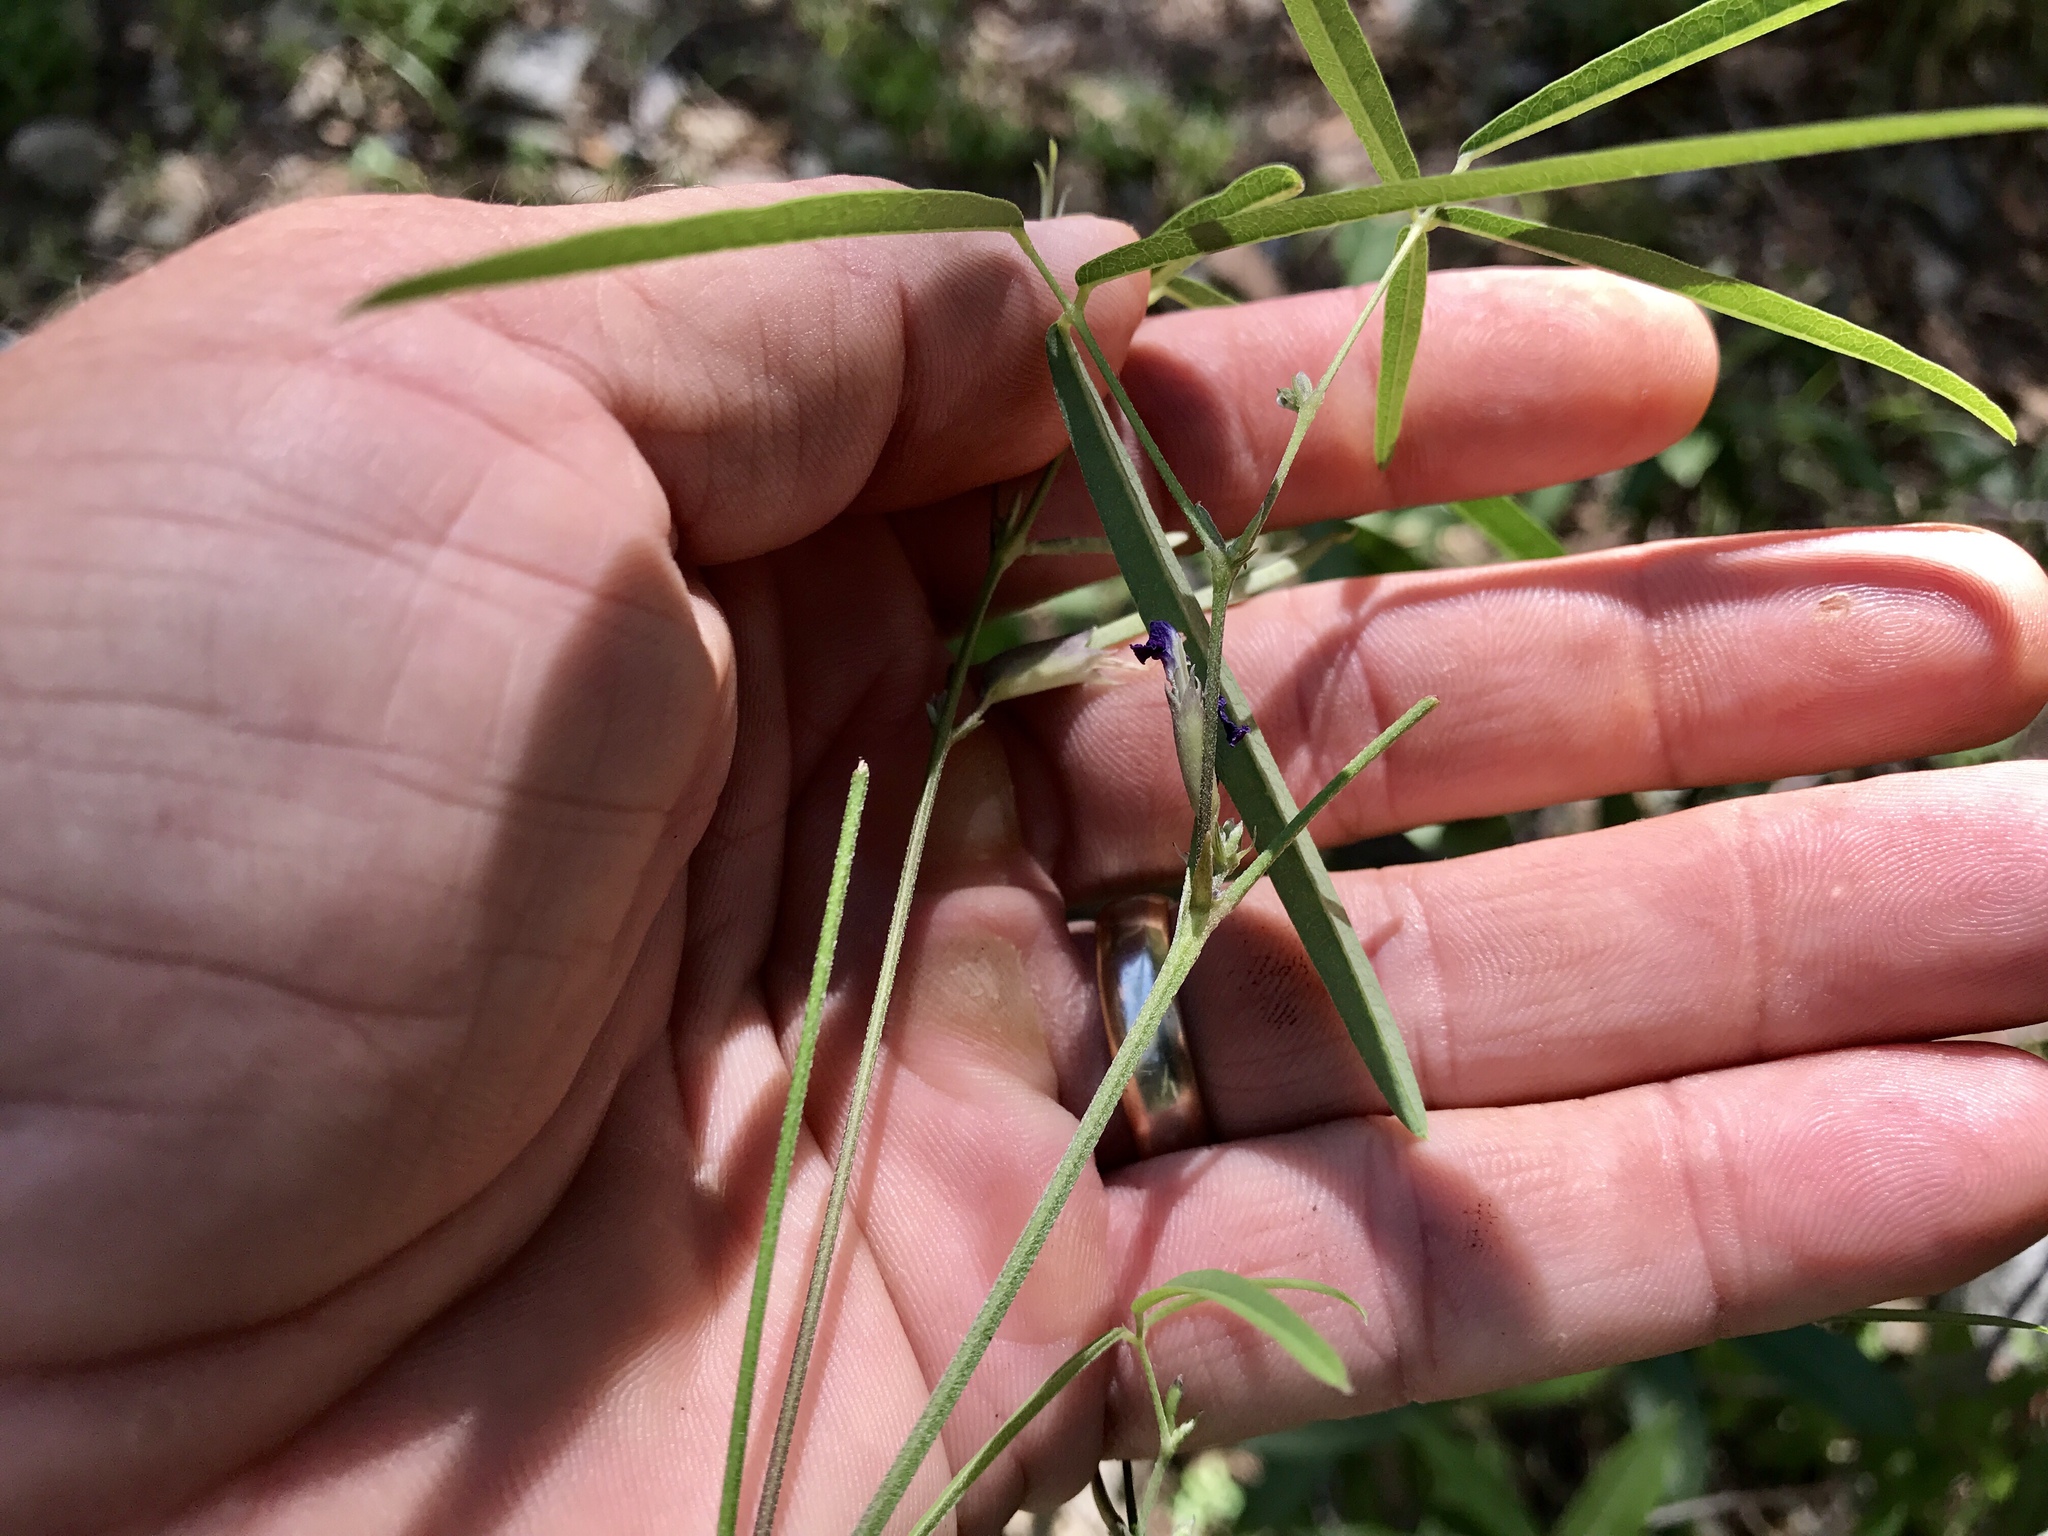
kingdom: Plantae
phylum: Tracheophyta
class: Magnoliopsida
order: Fabales
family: Fabaceae
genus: Cologania
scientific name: Cologania angustifolia
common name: Longleaf cologania
